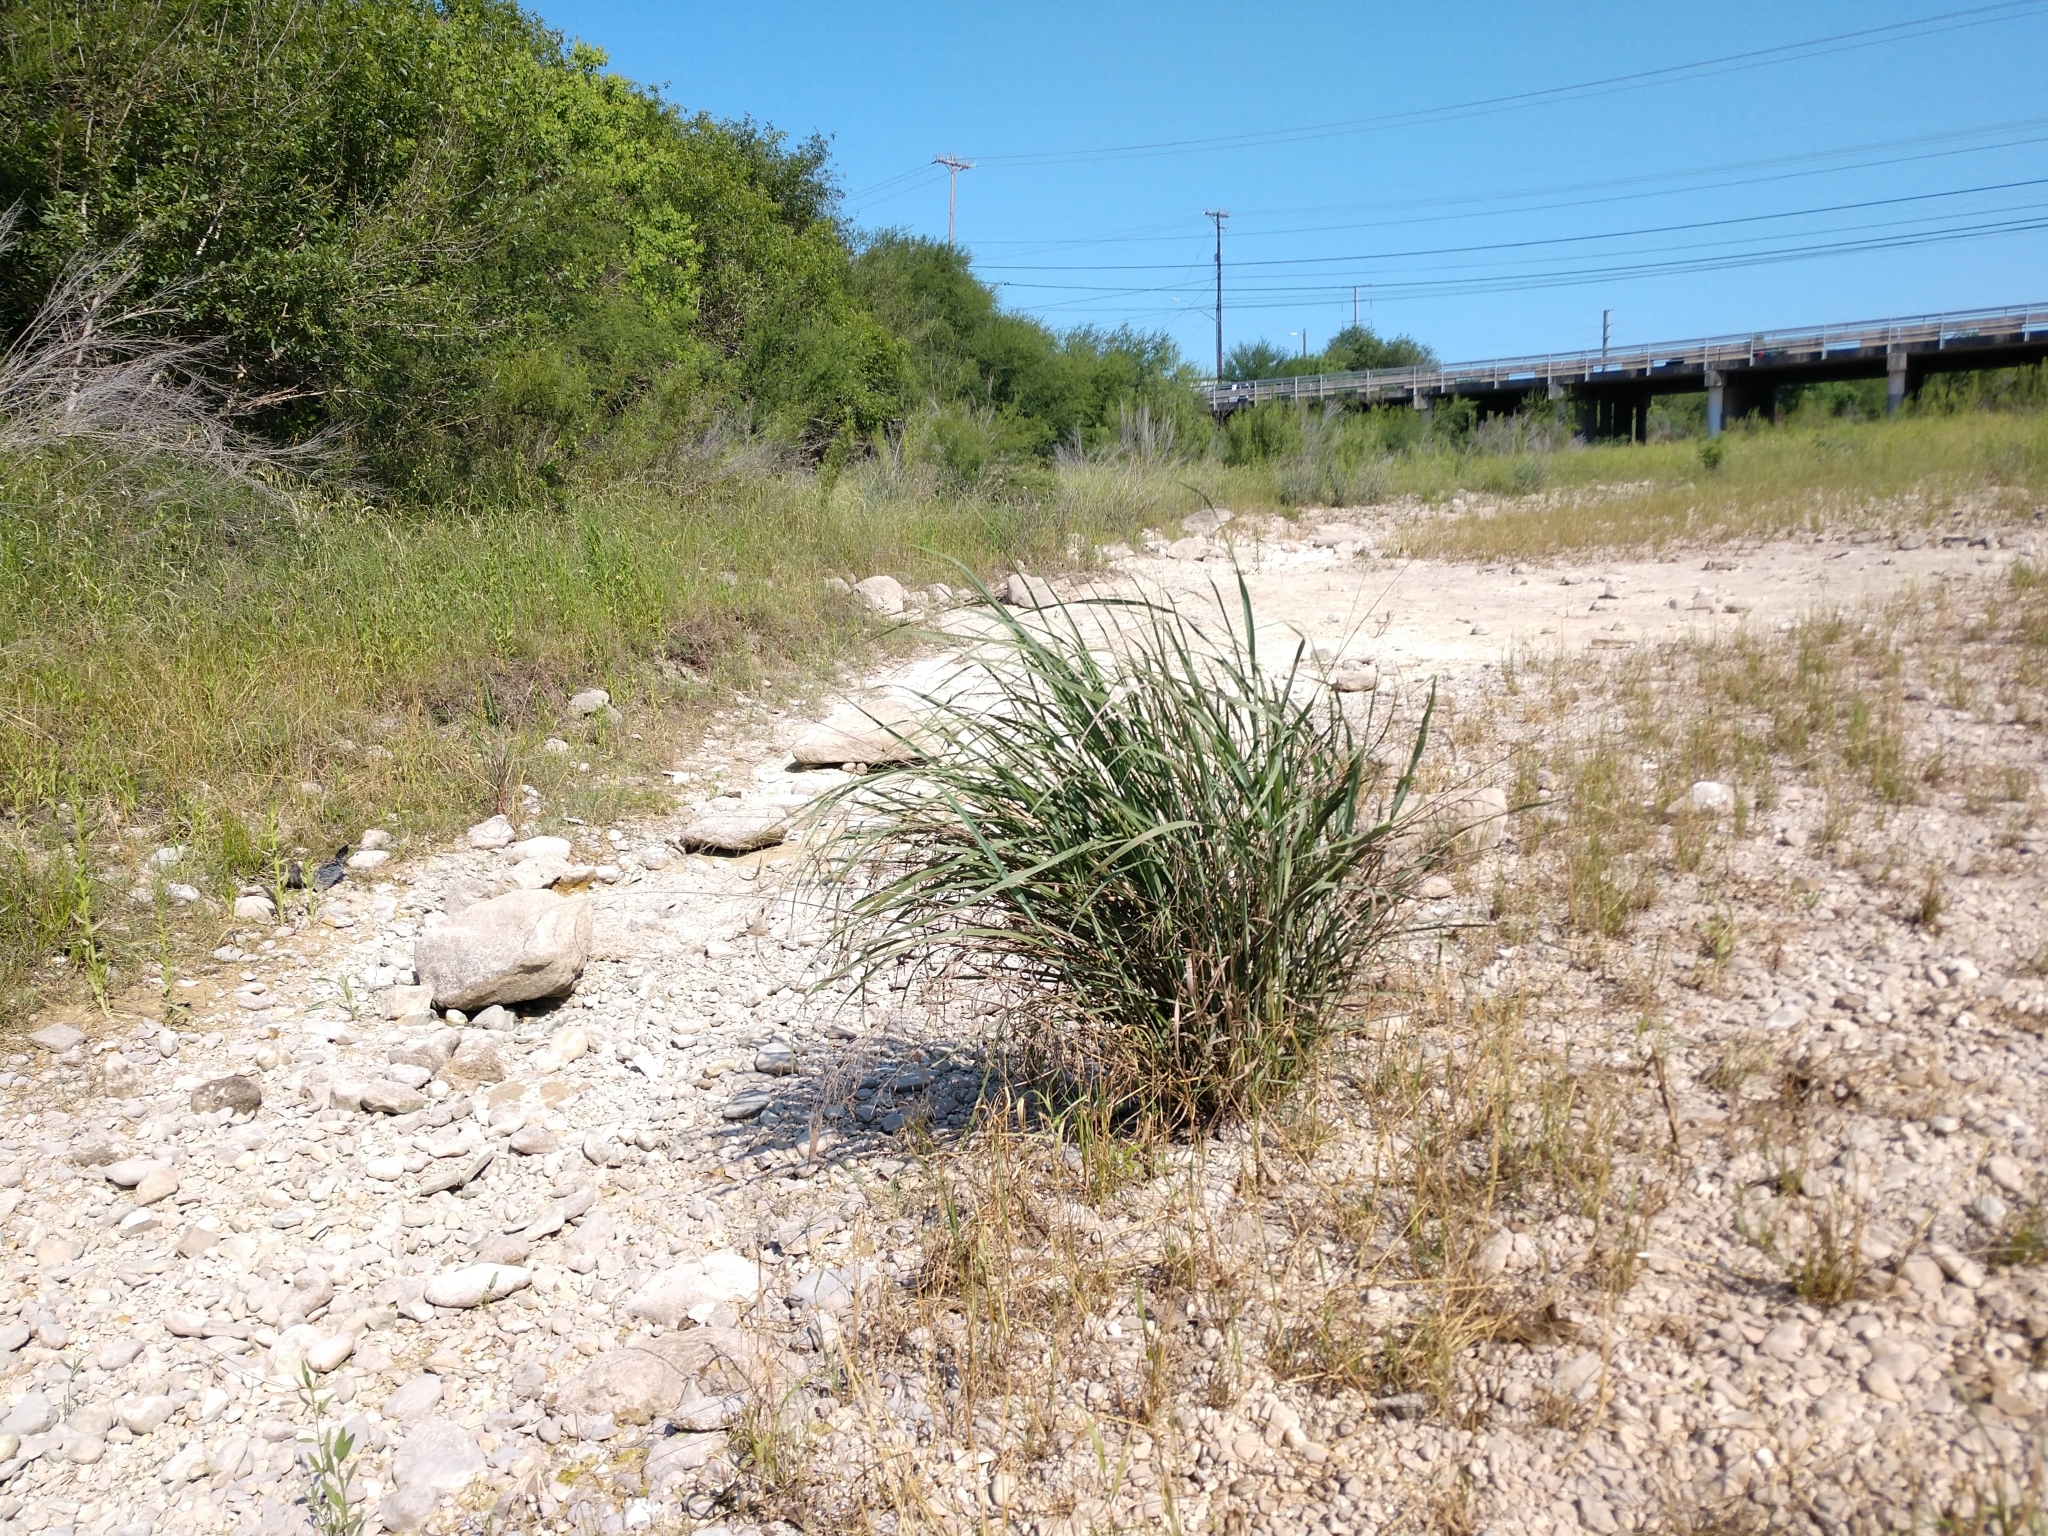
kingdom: Plantae
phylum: Tracheophyta
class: Liliopsida
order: Poales
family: Poaceae
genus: Panicum
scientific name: Panicum virgatum
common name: Switchgrass
